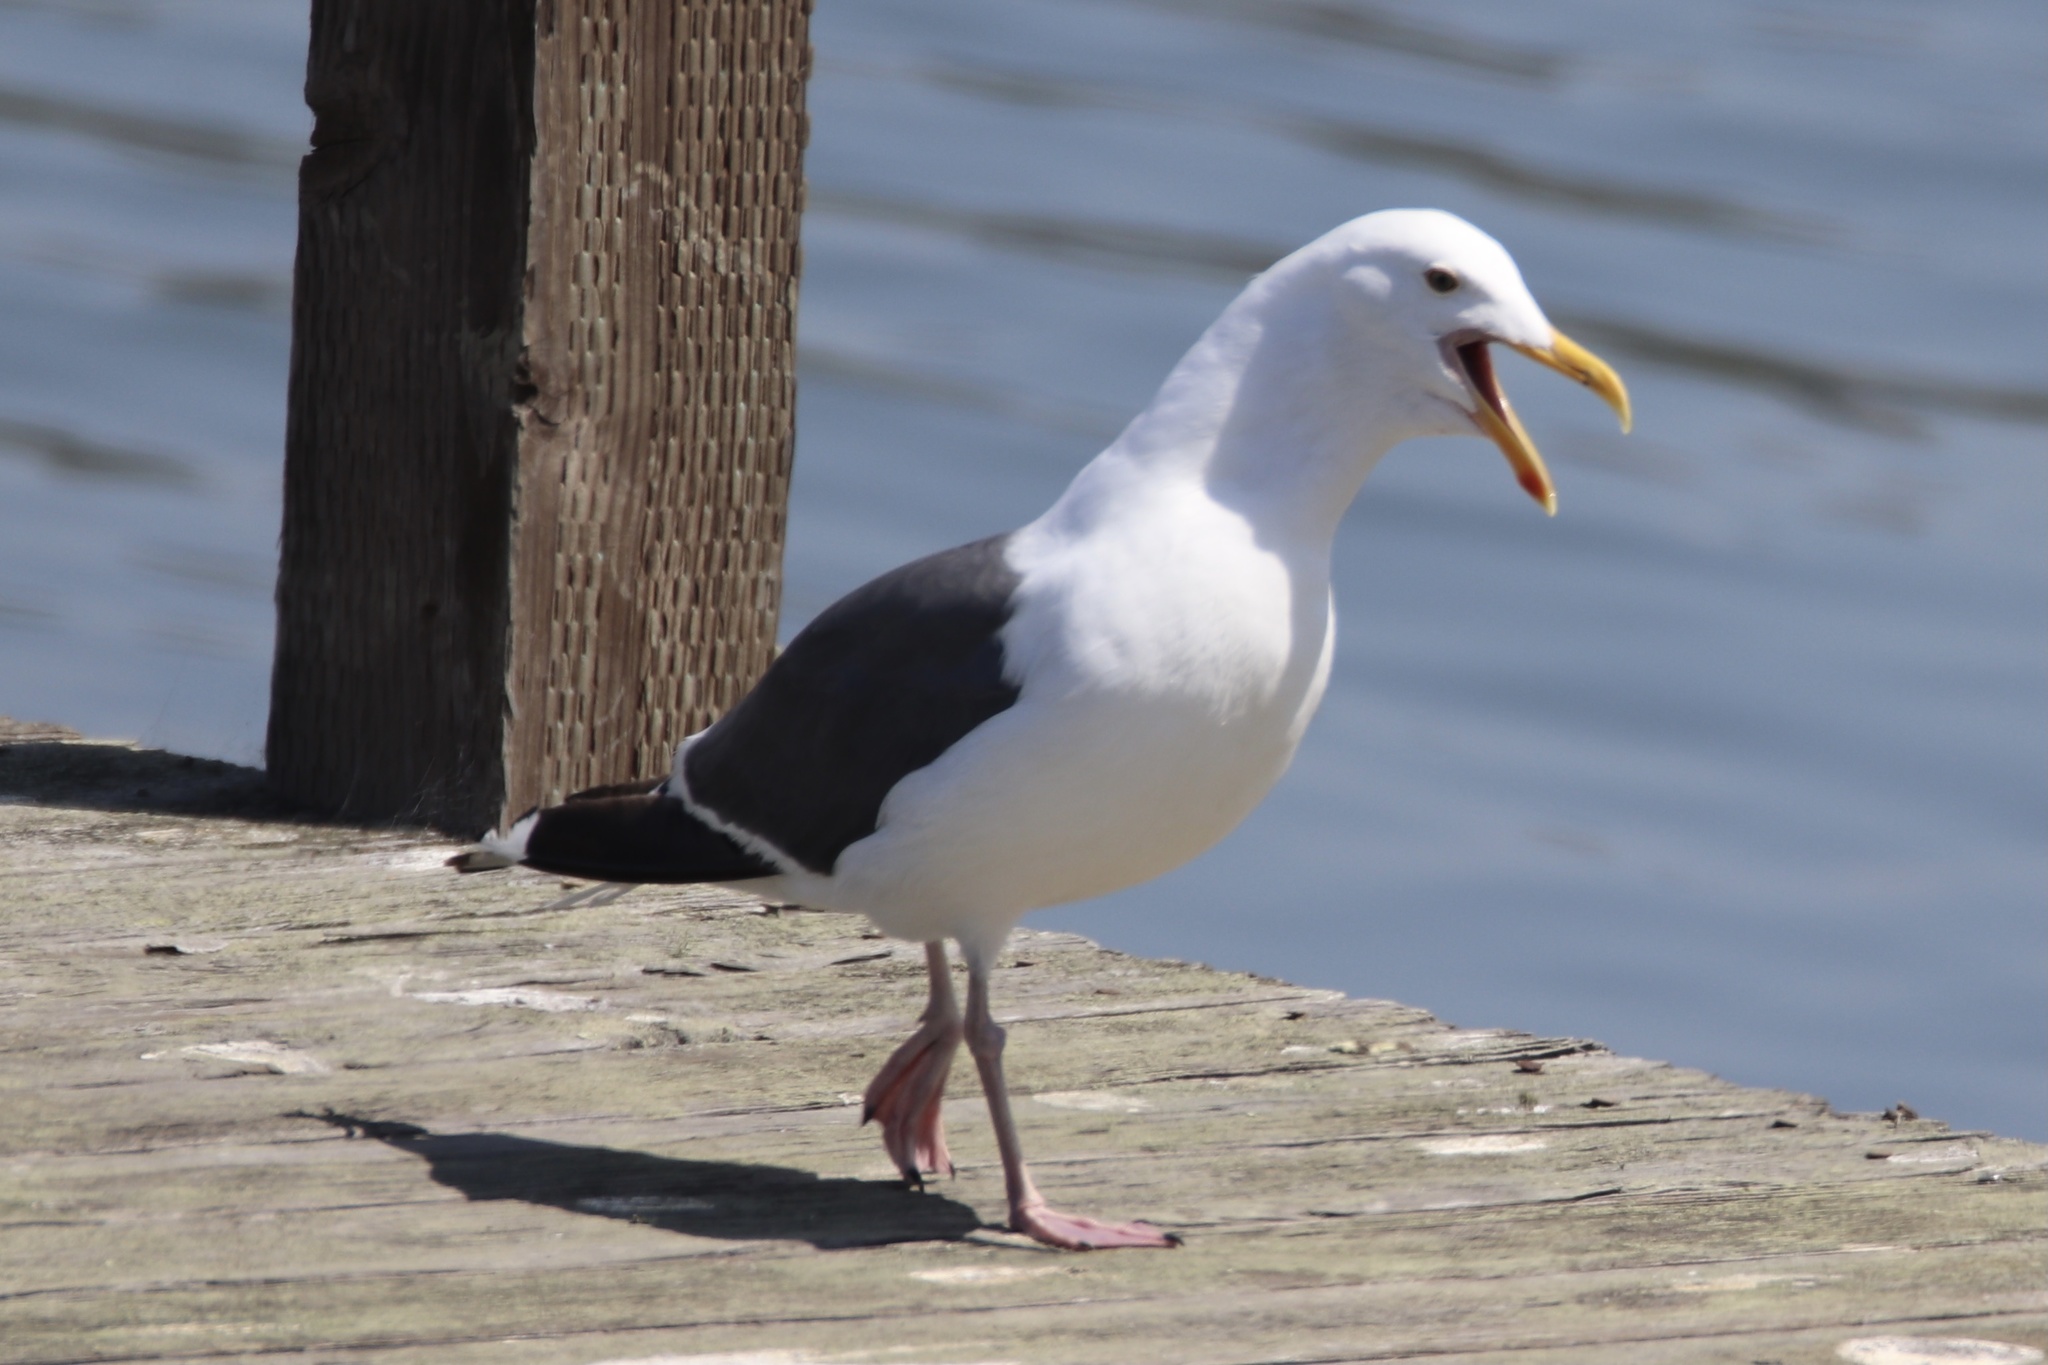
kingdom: Animalia
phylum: Chordata
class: Aves
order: Charadriiformes
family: Laridae
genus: Larus
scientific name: Larus occidentalis
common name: Western gull
